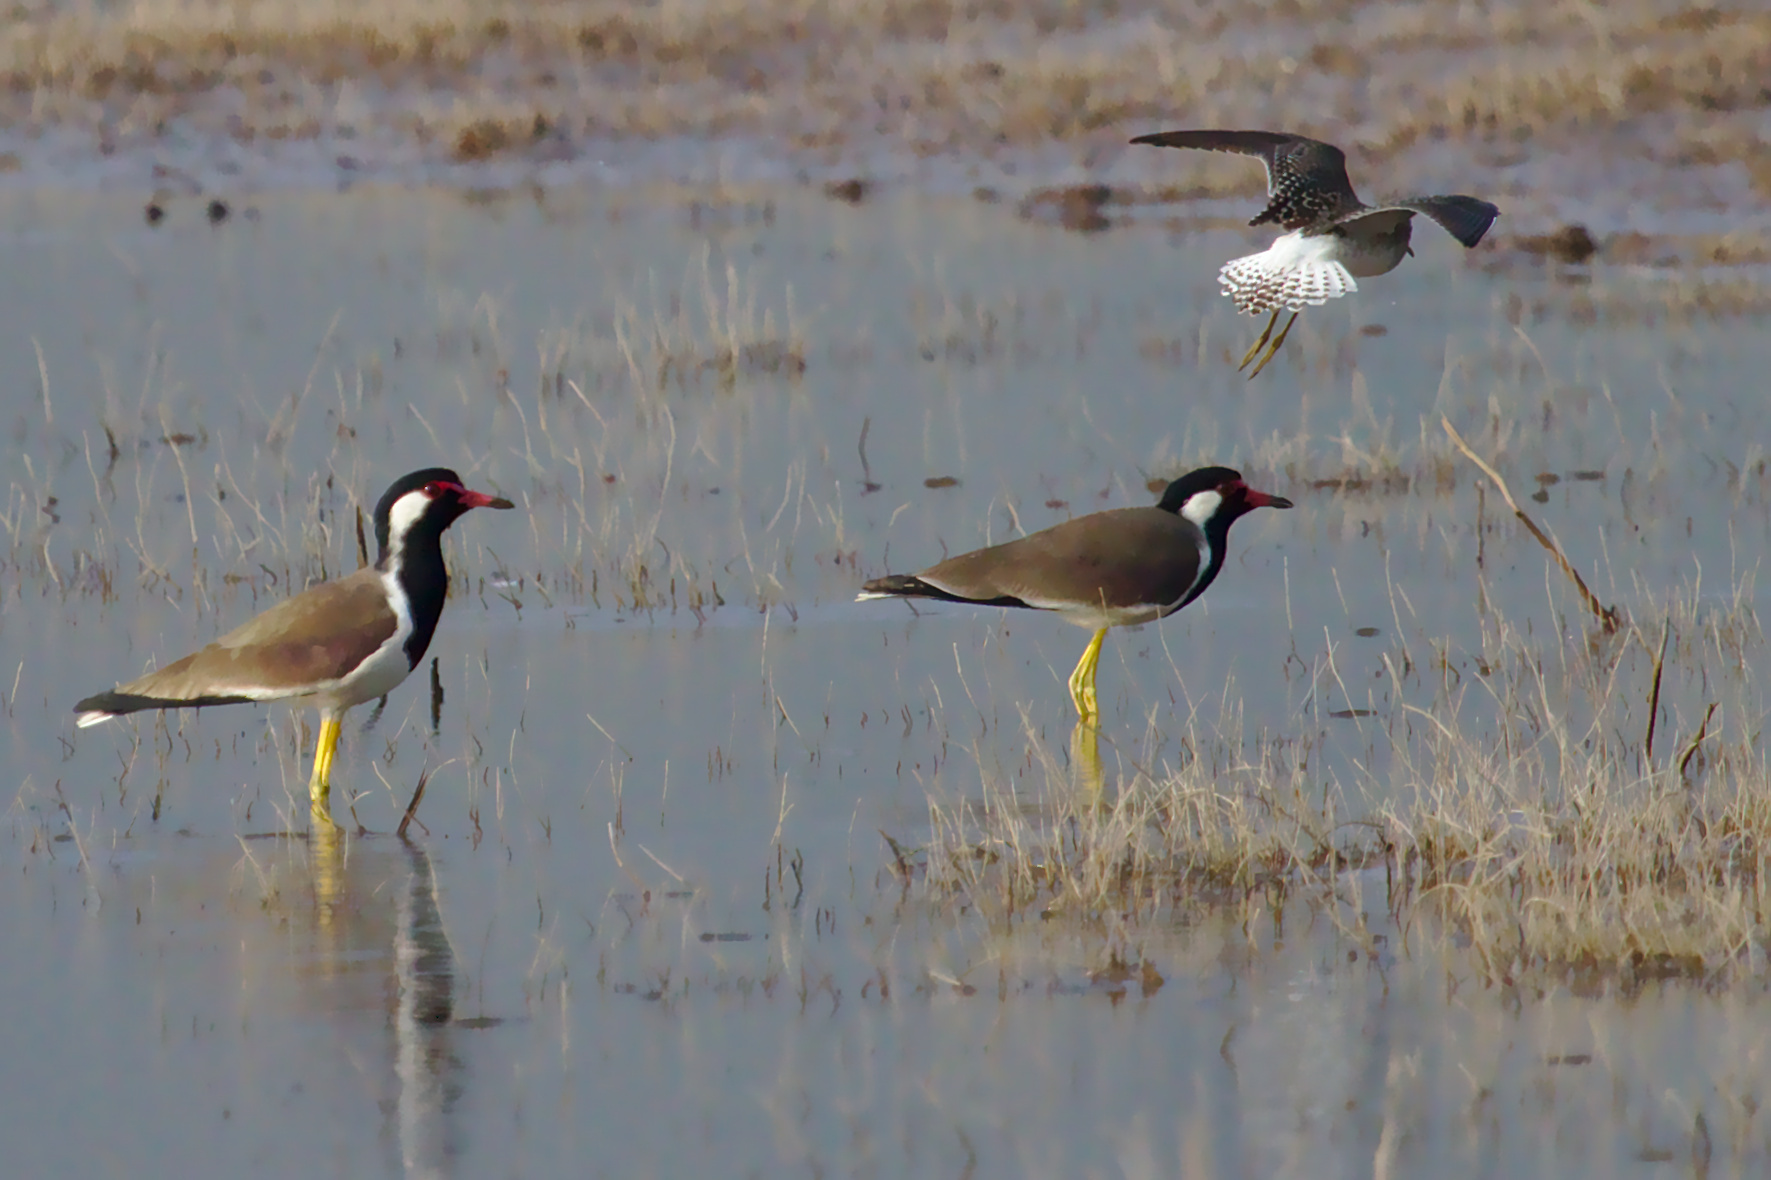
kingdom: Animalia
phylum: Chordata
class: Aves
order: Charadriiformes
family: Charadriidae
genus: Vanellus
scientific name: Vanellus indicus
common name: Red-wattled lapwing
